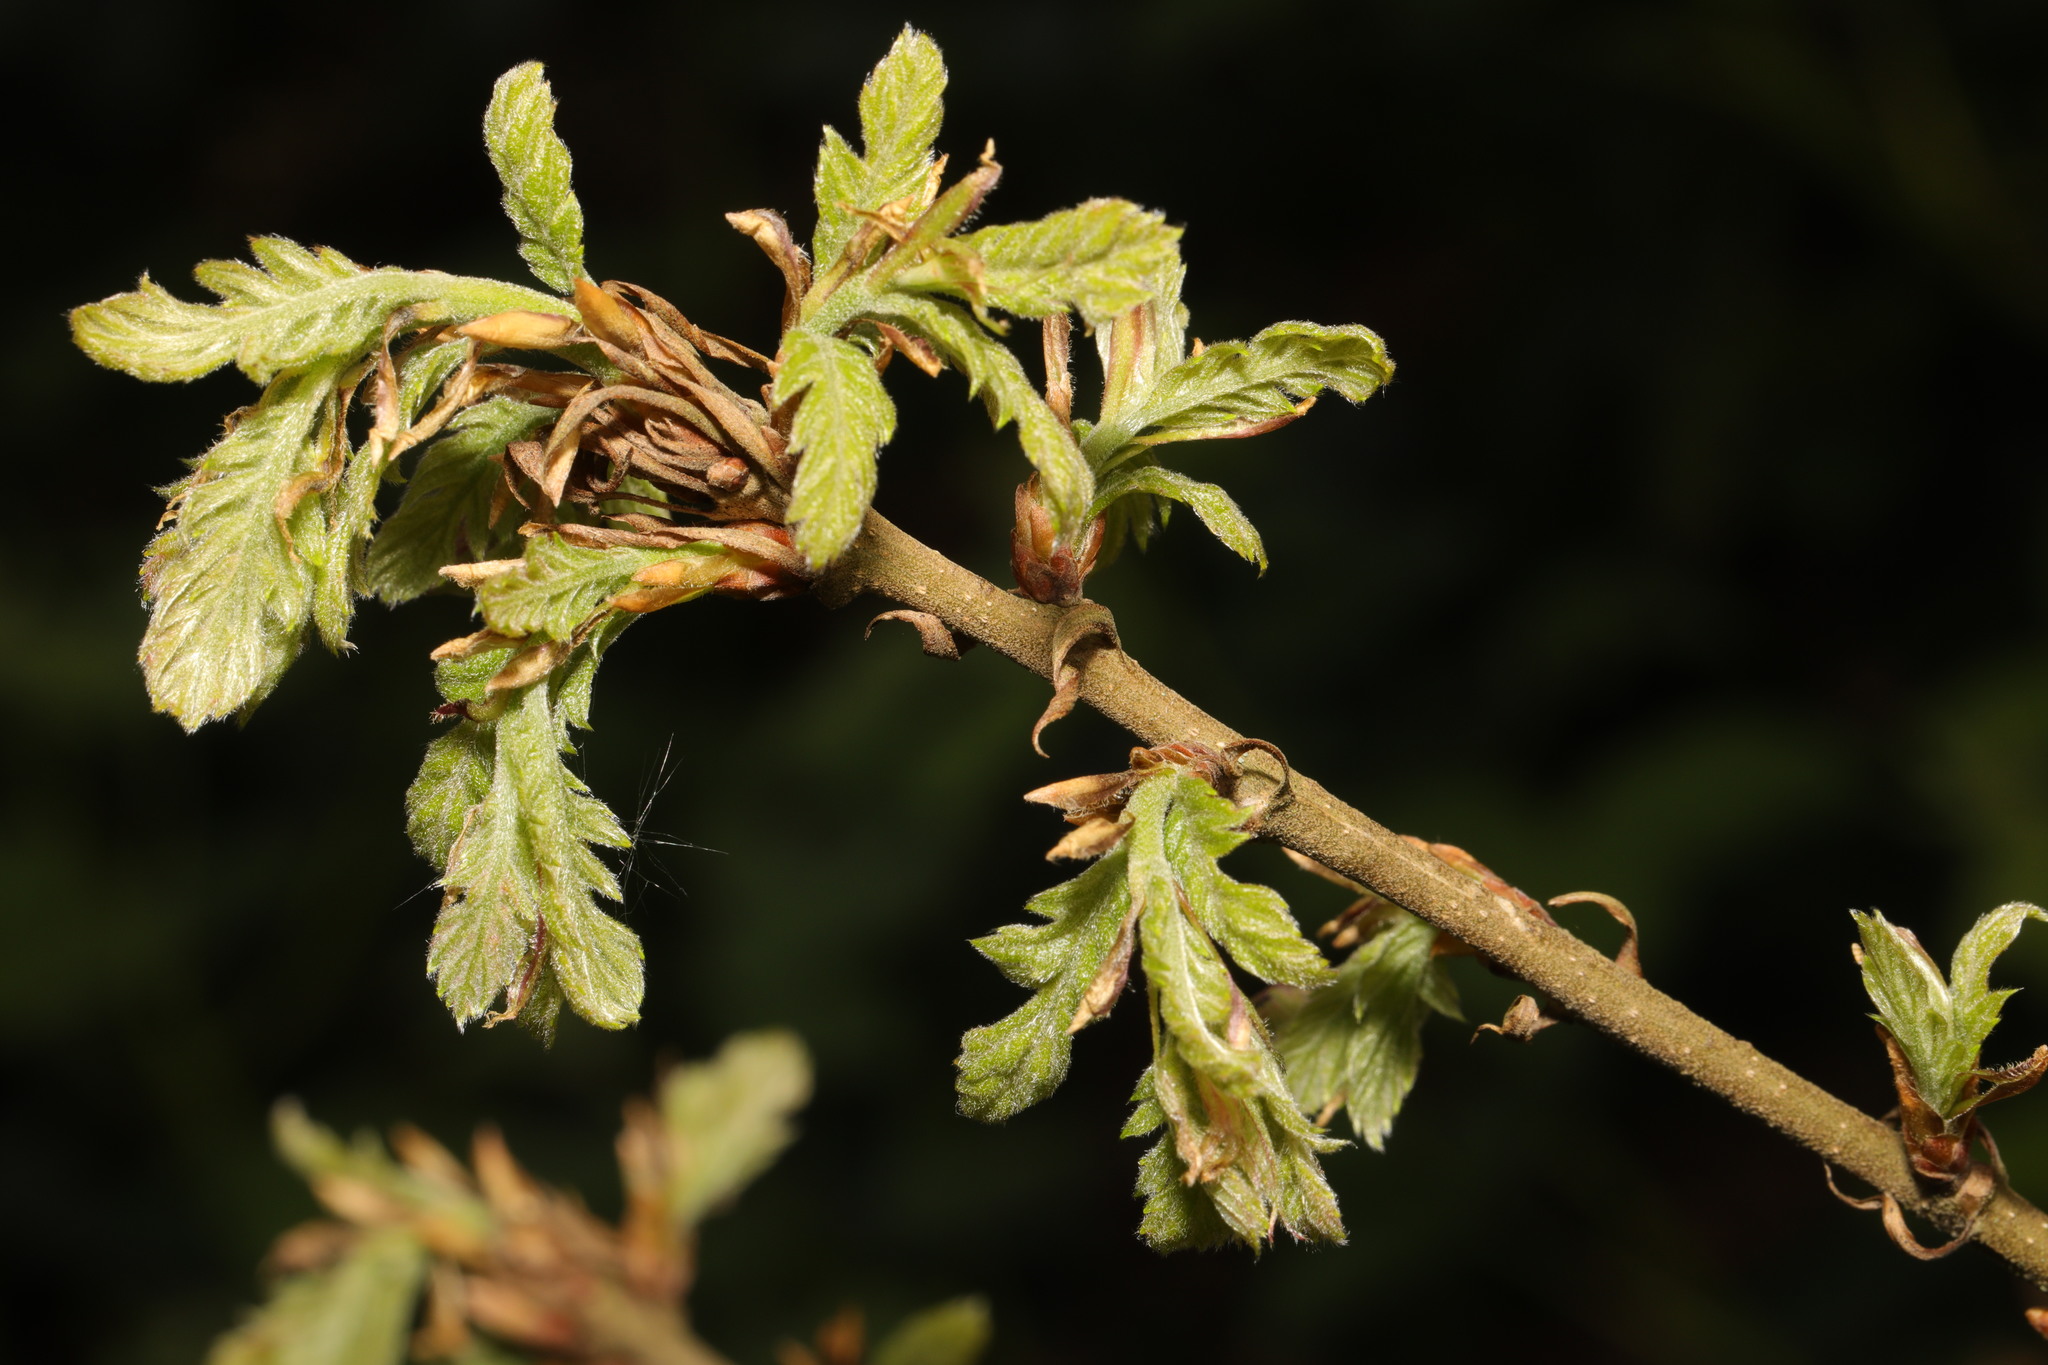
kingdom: Plantae
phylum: Tracheophyta
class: Magnoliopsida
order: Fagales
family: Fagaceae
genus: Quercus
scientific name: Quercus cerris
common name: Turkey oak
